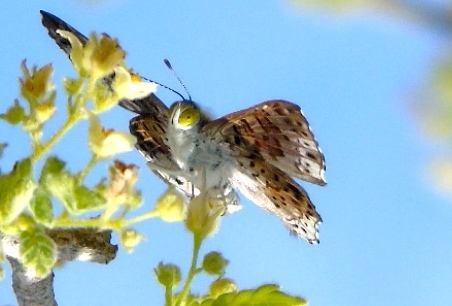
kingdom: Animalia
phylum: Arthropoda
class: Insecta
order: Diptera
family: Acroceridae
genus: Lasia
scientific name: Lasia
